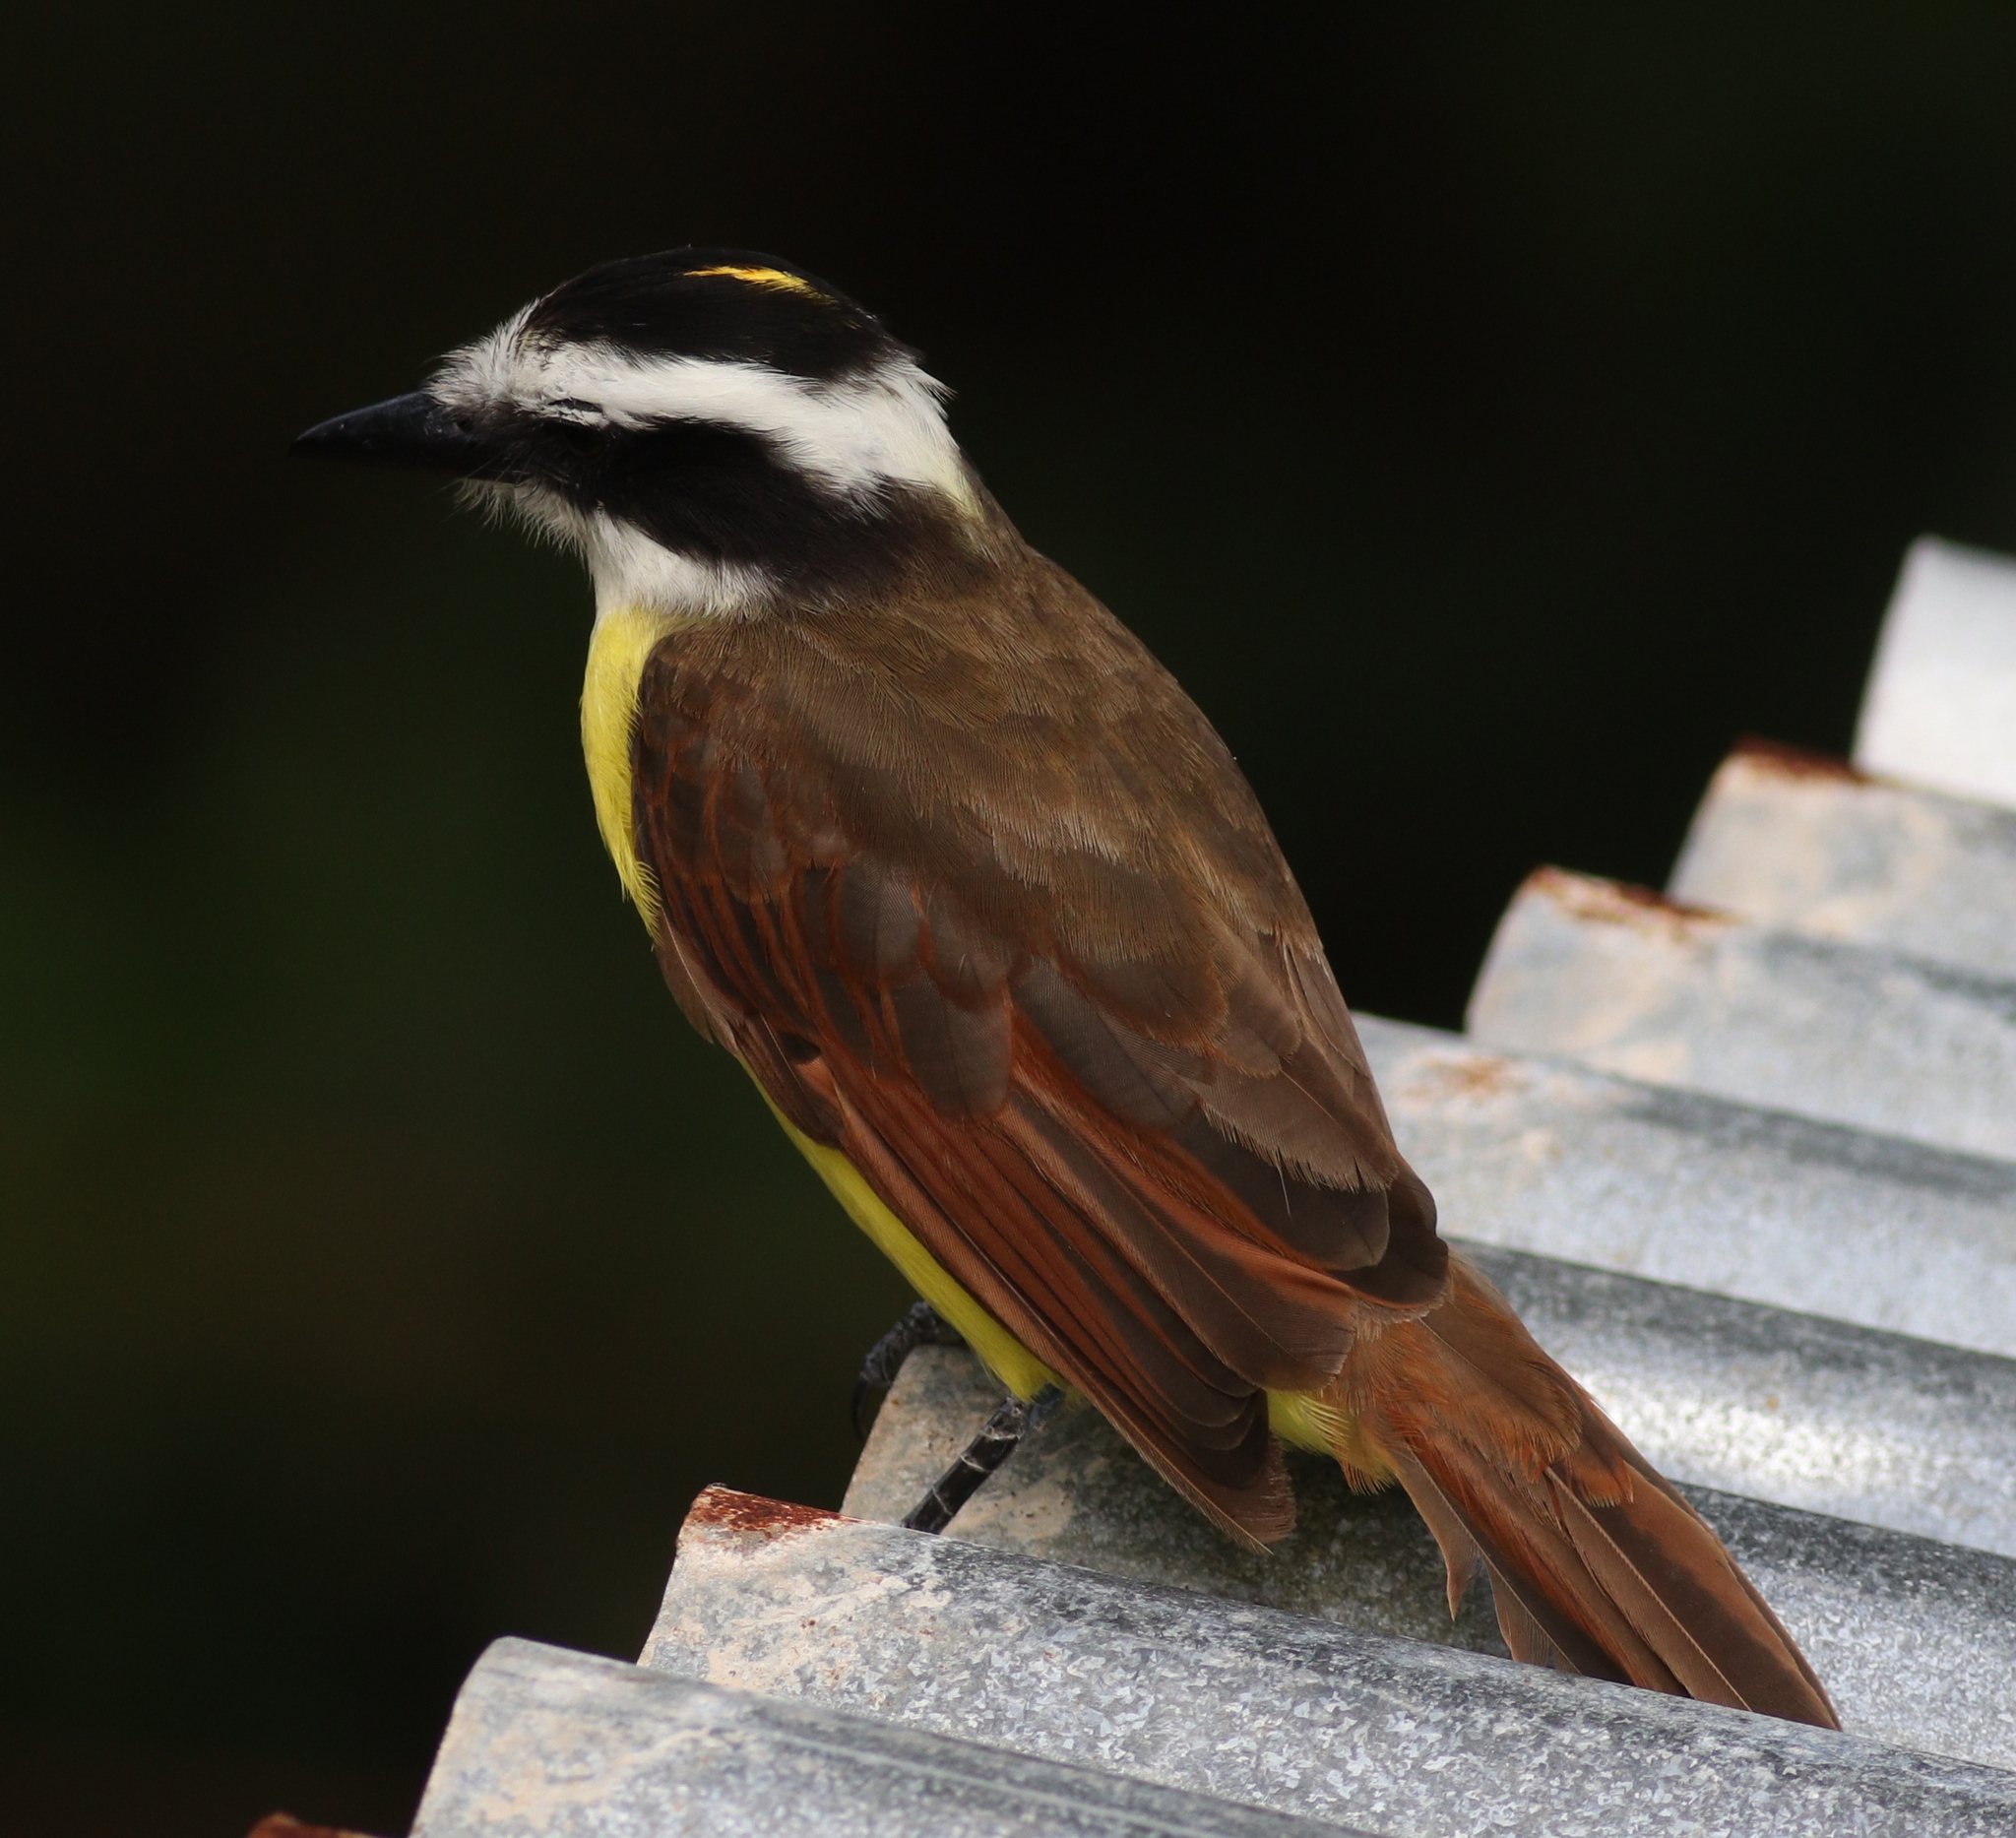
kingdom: Animalia
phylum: Chordata
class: Aves
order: Passeriformes
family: Tyrannidae
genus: Pitangus
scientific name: Pitangus sulphuratus
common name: Great kiskadee
